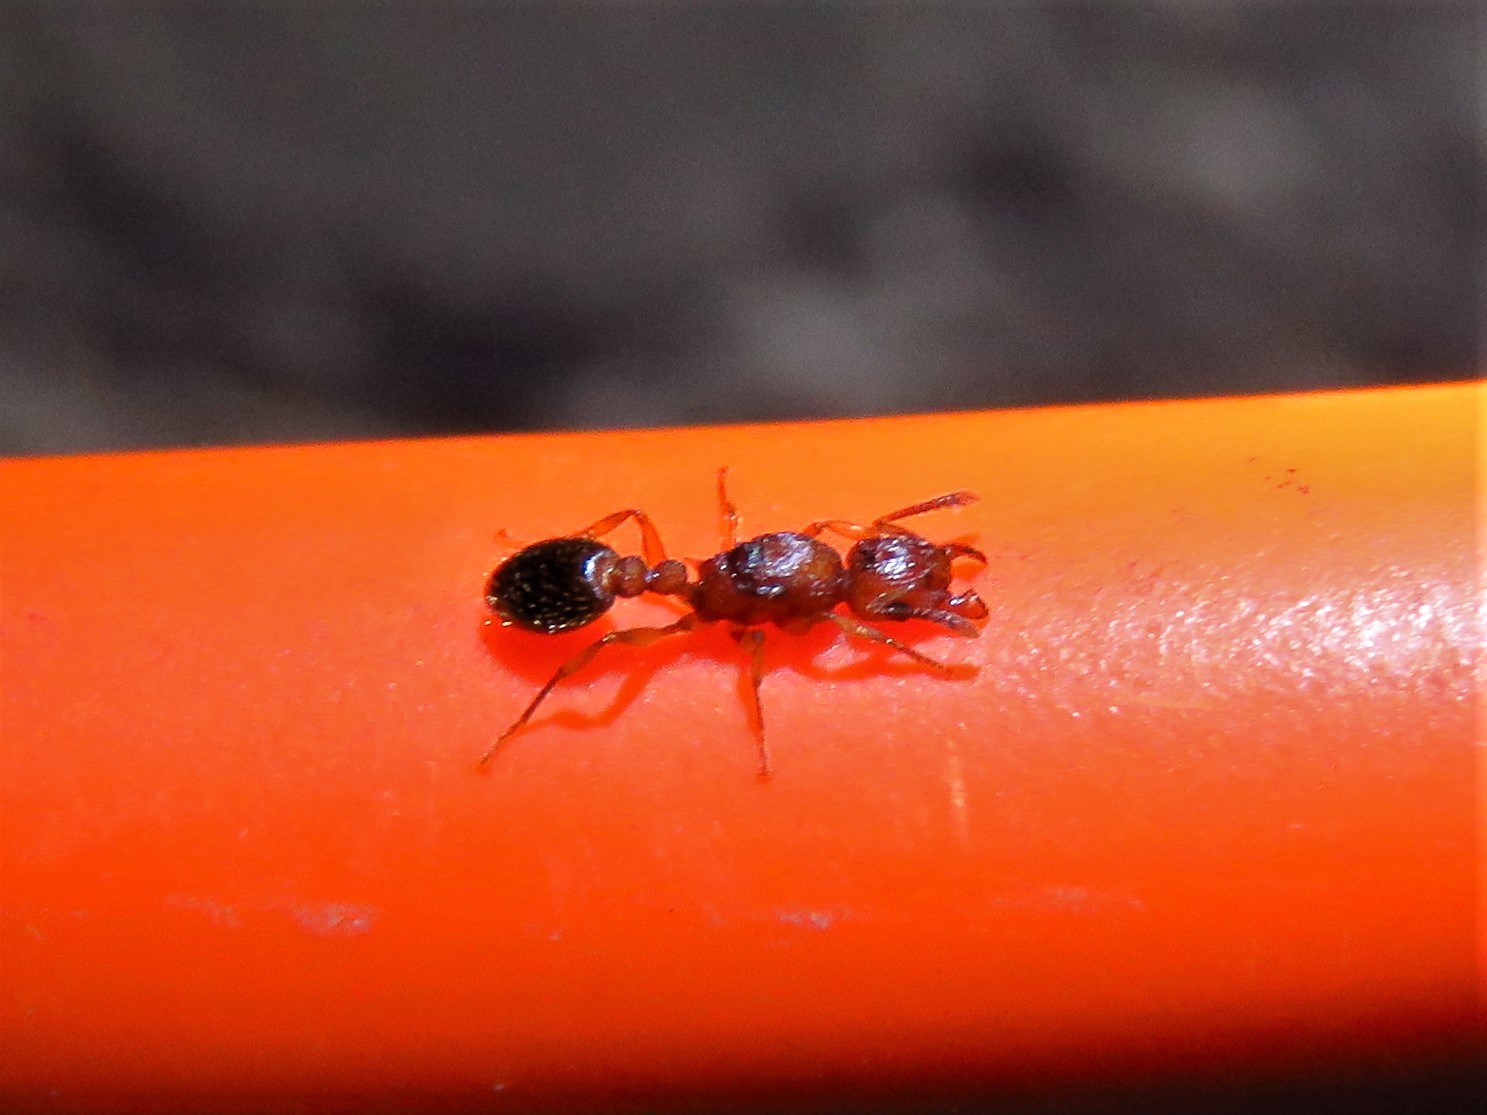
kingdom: Animalia
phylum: Arthropoda
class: Insecta
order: Hymenoptera
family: Formicidae
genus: Tetramorium
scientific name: Tetramorium bicarinatum
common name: Guinea ant
